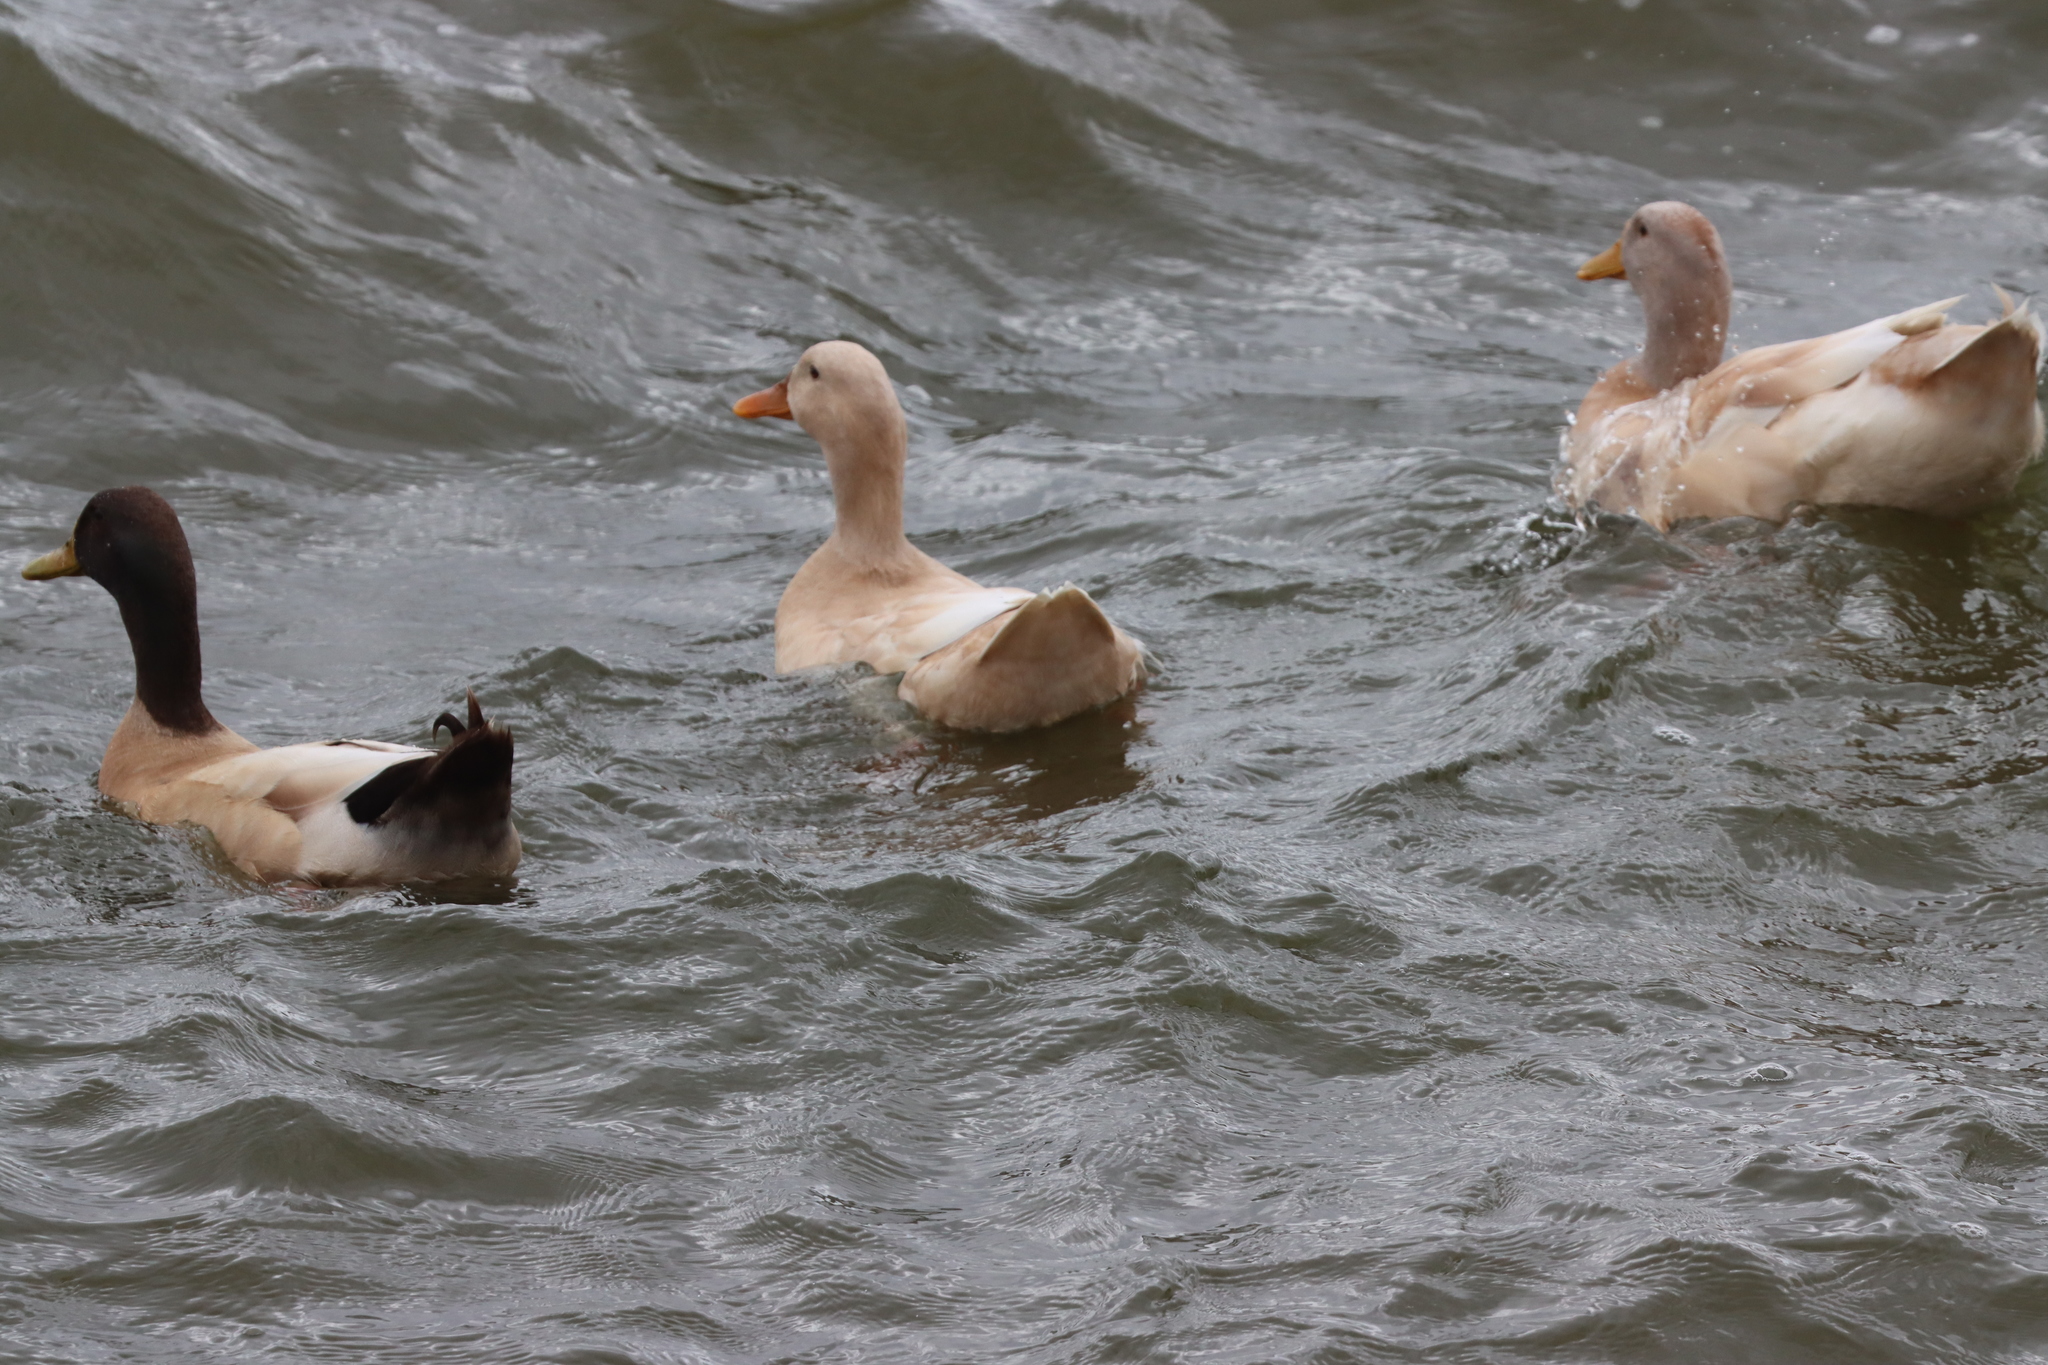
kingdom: Animalia
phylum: Chordata
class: Aves
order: Anseriformes
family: Anatidae
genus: Anas
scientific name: Anas platyrhynchos
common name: Mallard
